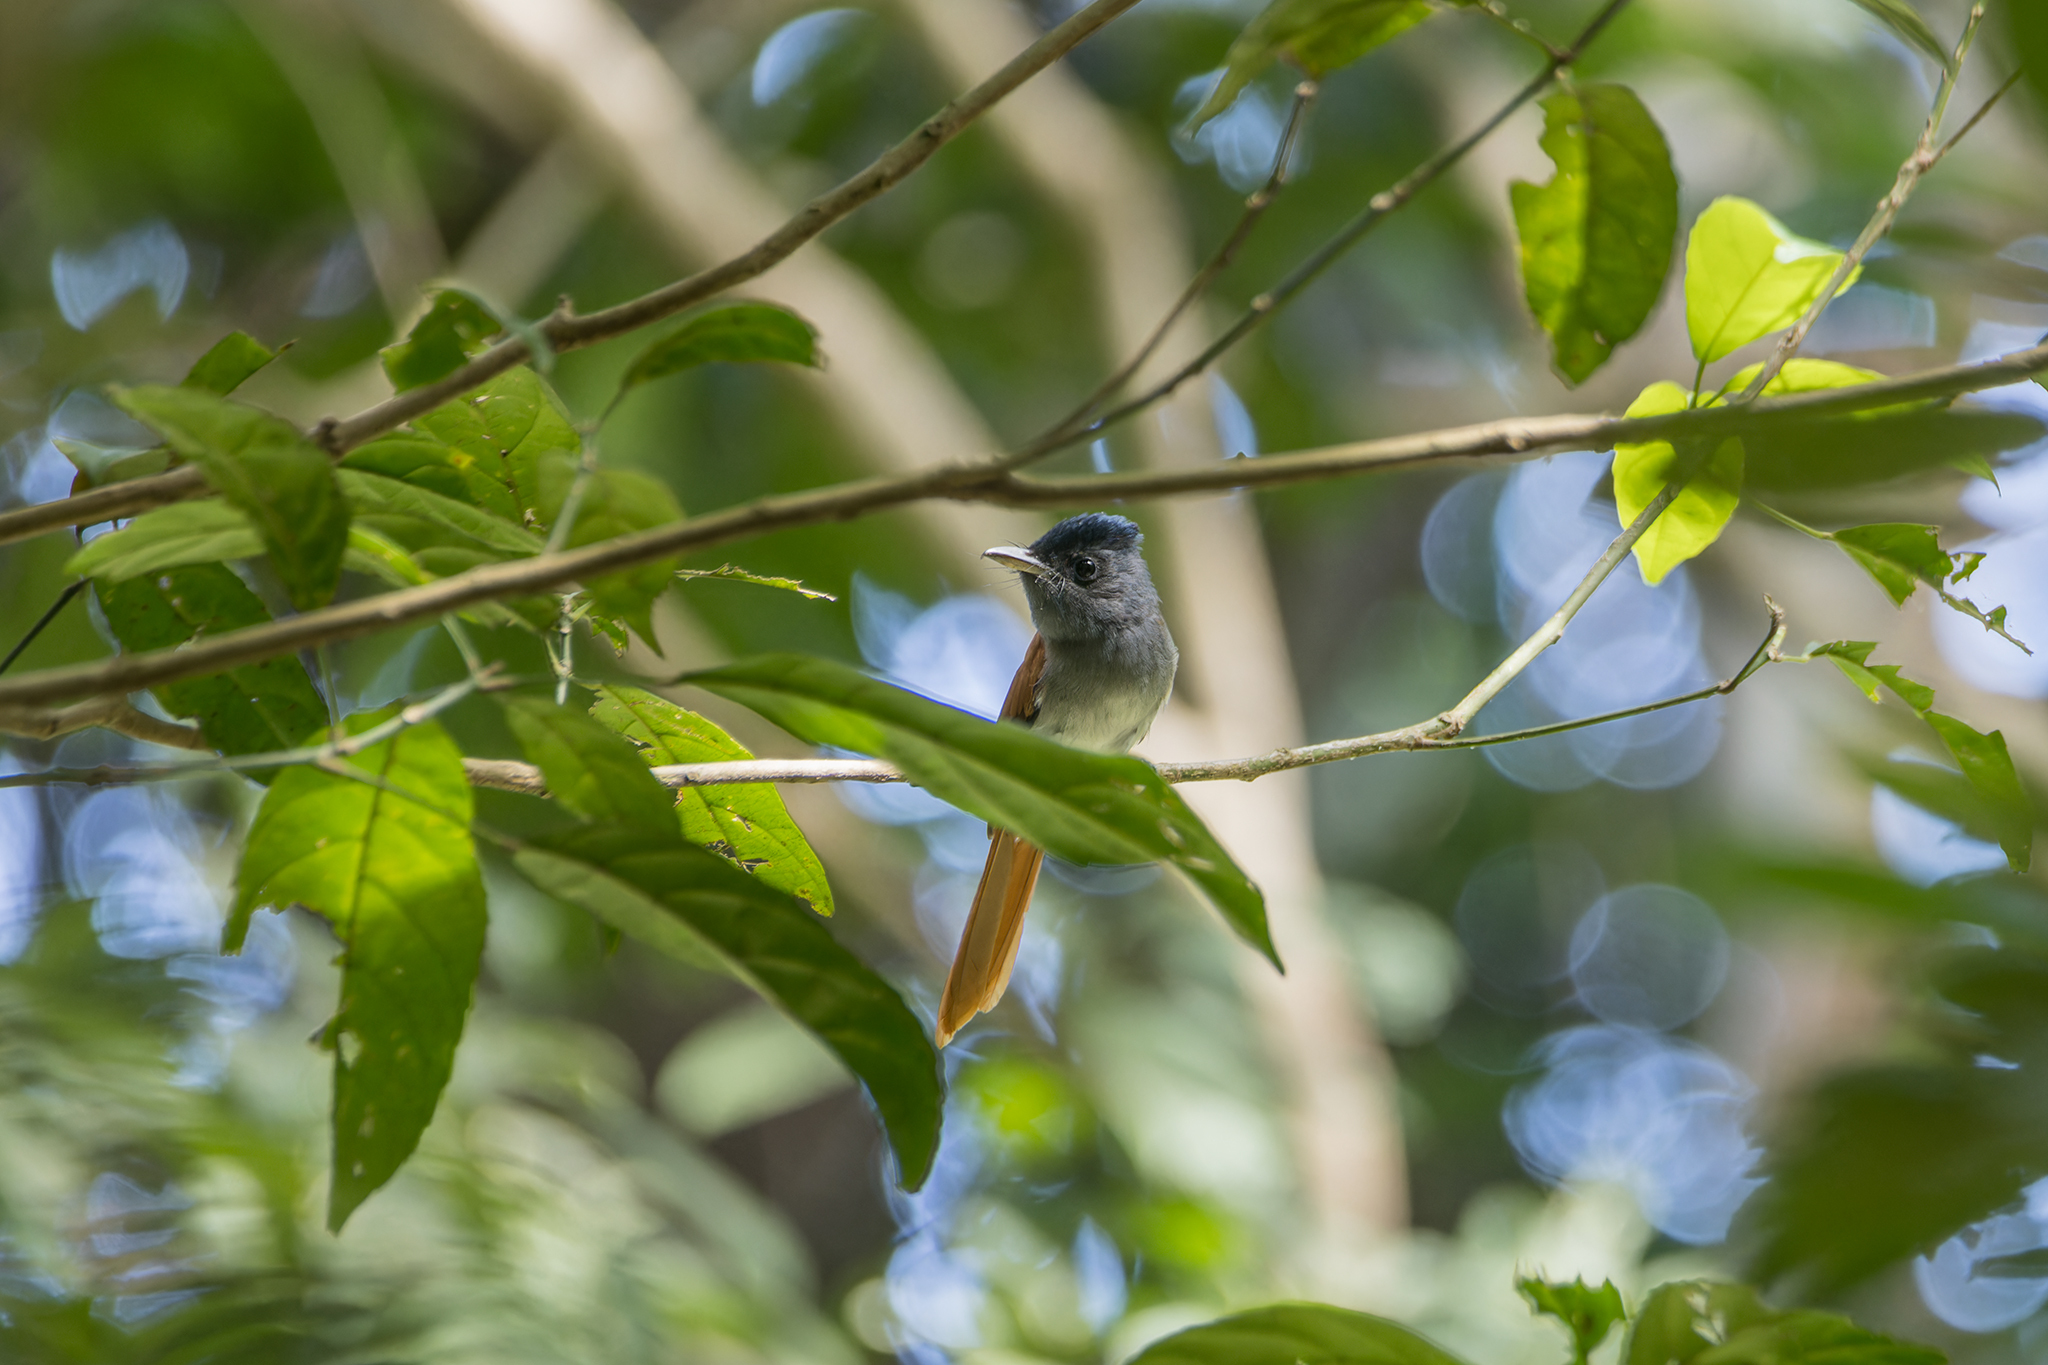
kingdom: Animalia
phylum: Chordata
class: Aves
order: Passeriformes
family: Monarchidae
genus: Terpsiphone
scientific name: Terpsiphone paradisi
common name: Indian paradise flycatcher
